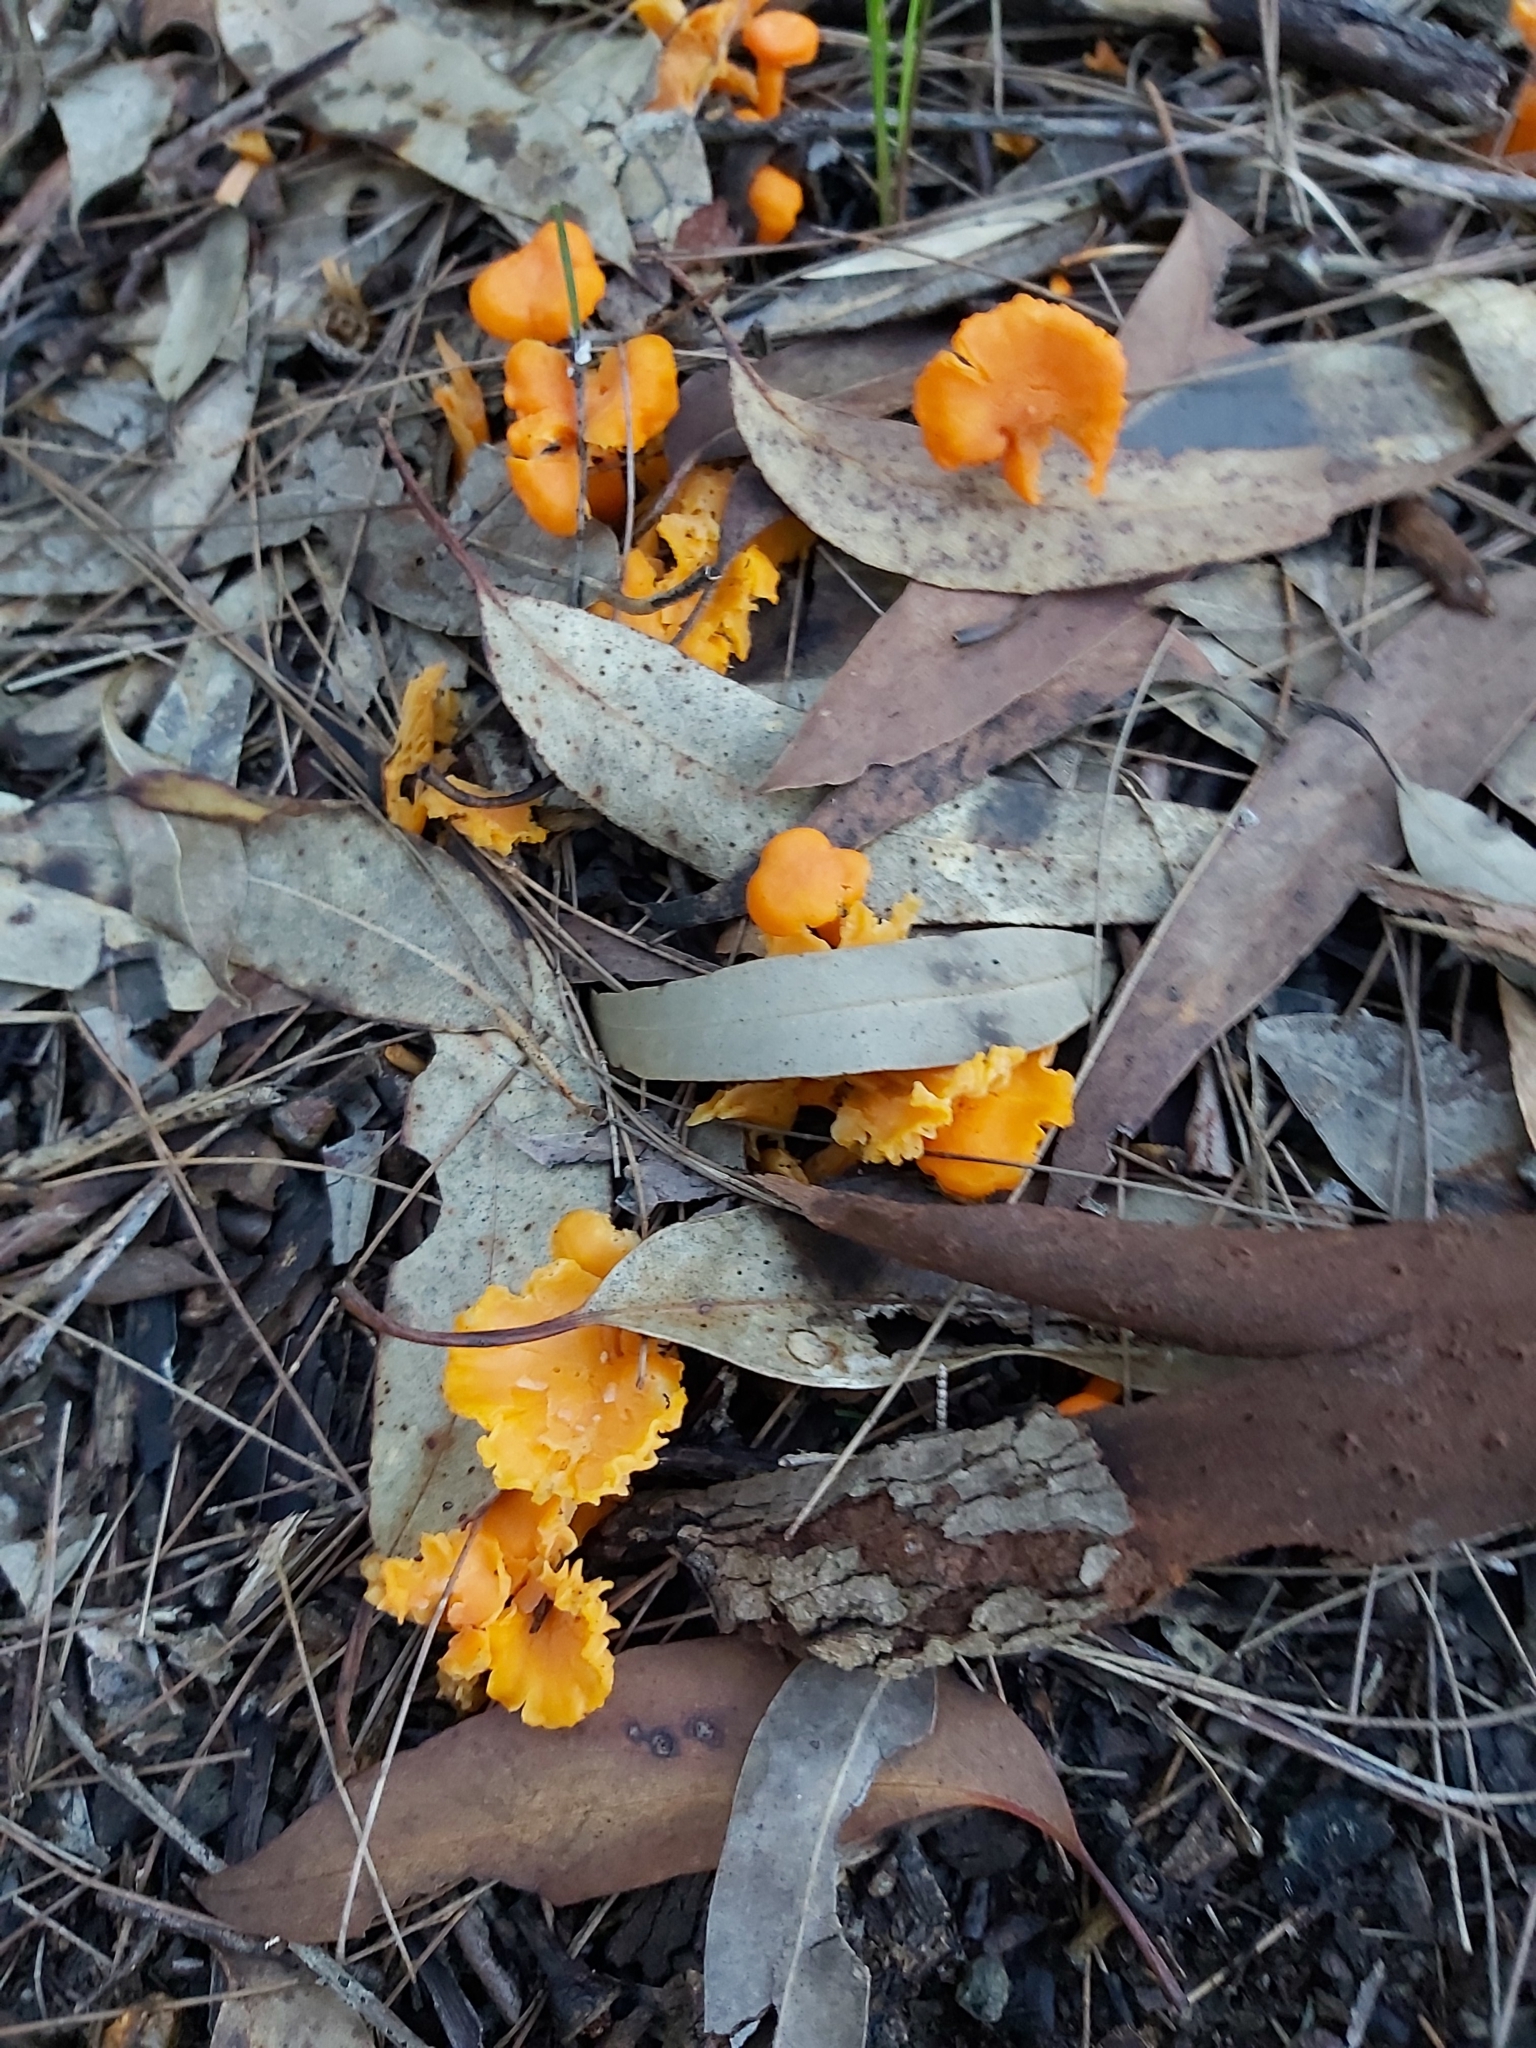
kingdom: Fungi
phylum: Basidiomycota
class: Agaricomycetes
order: Cantharellales
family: Hydnaceae
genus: Cantharellus
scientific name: Cantharellus
